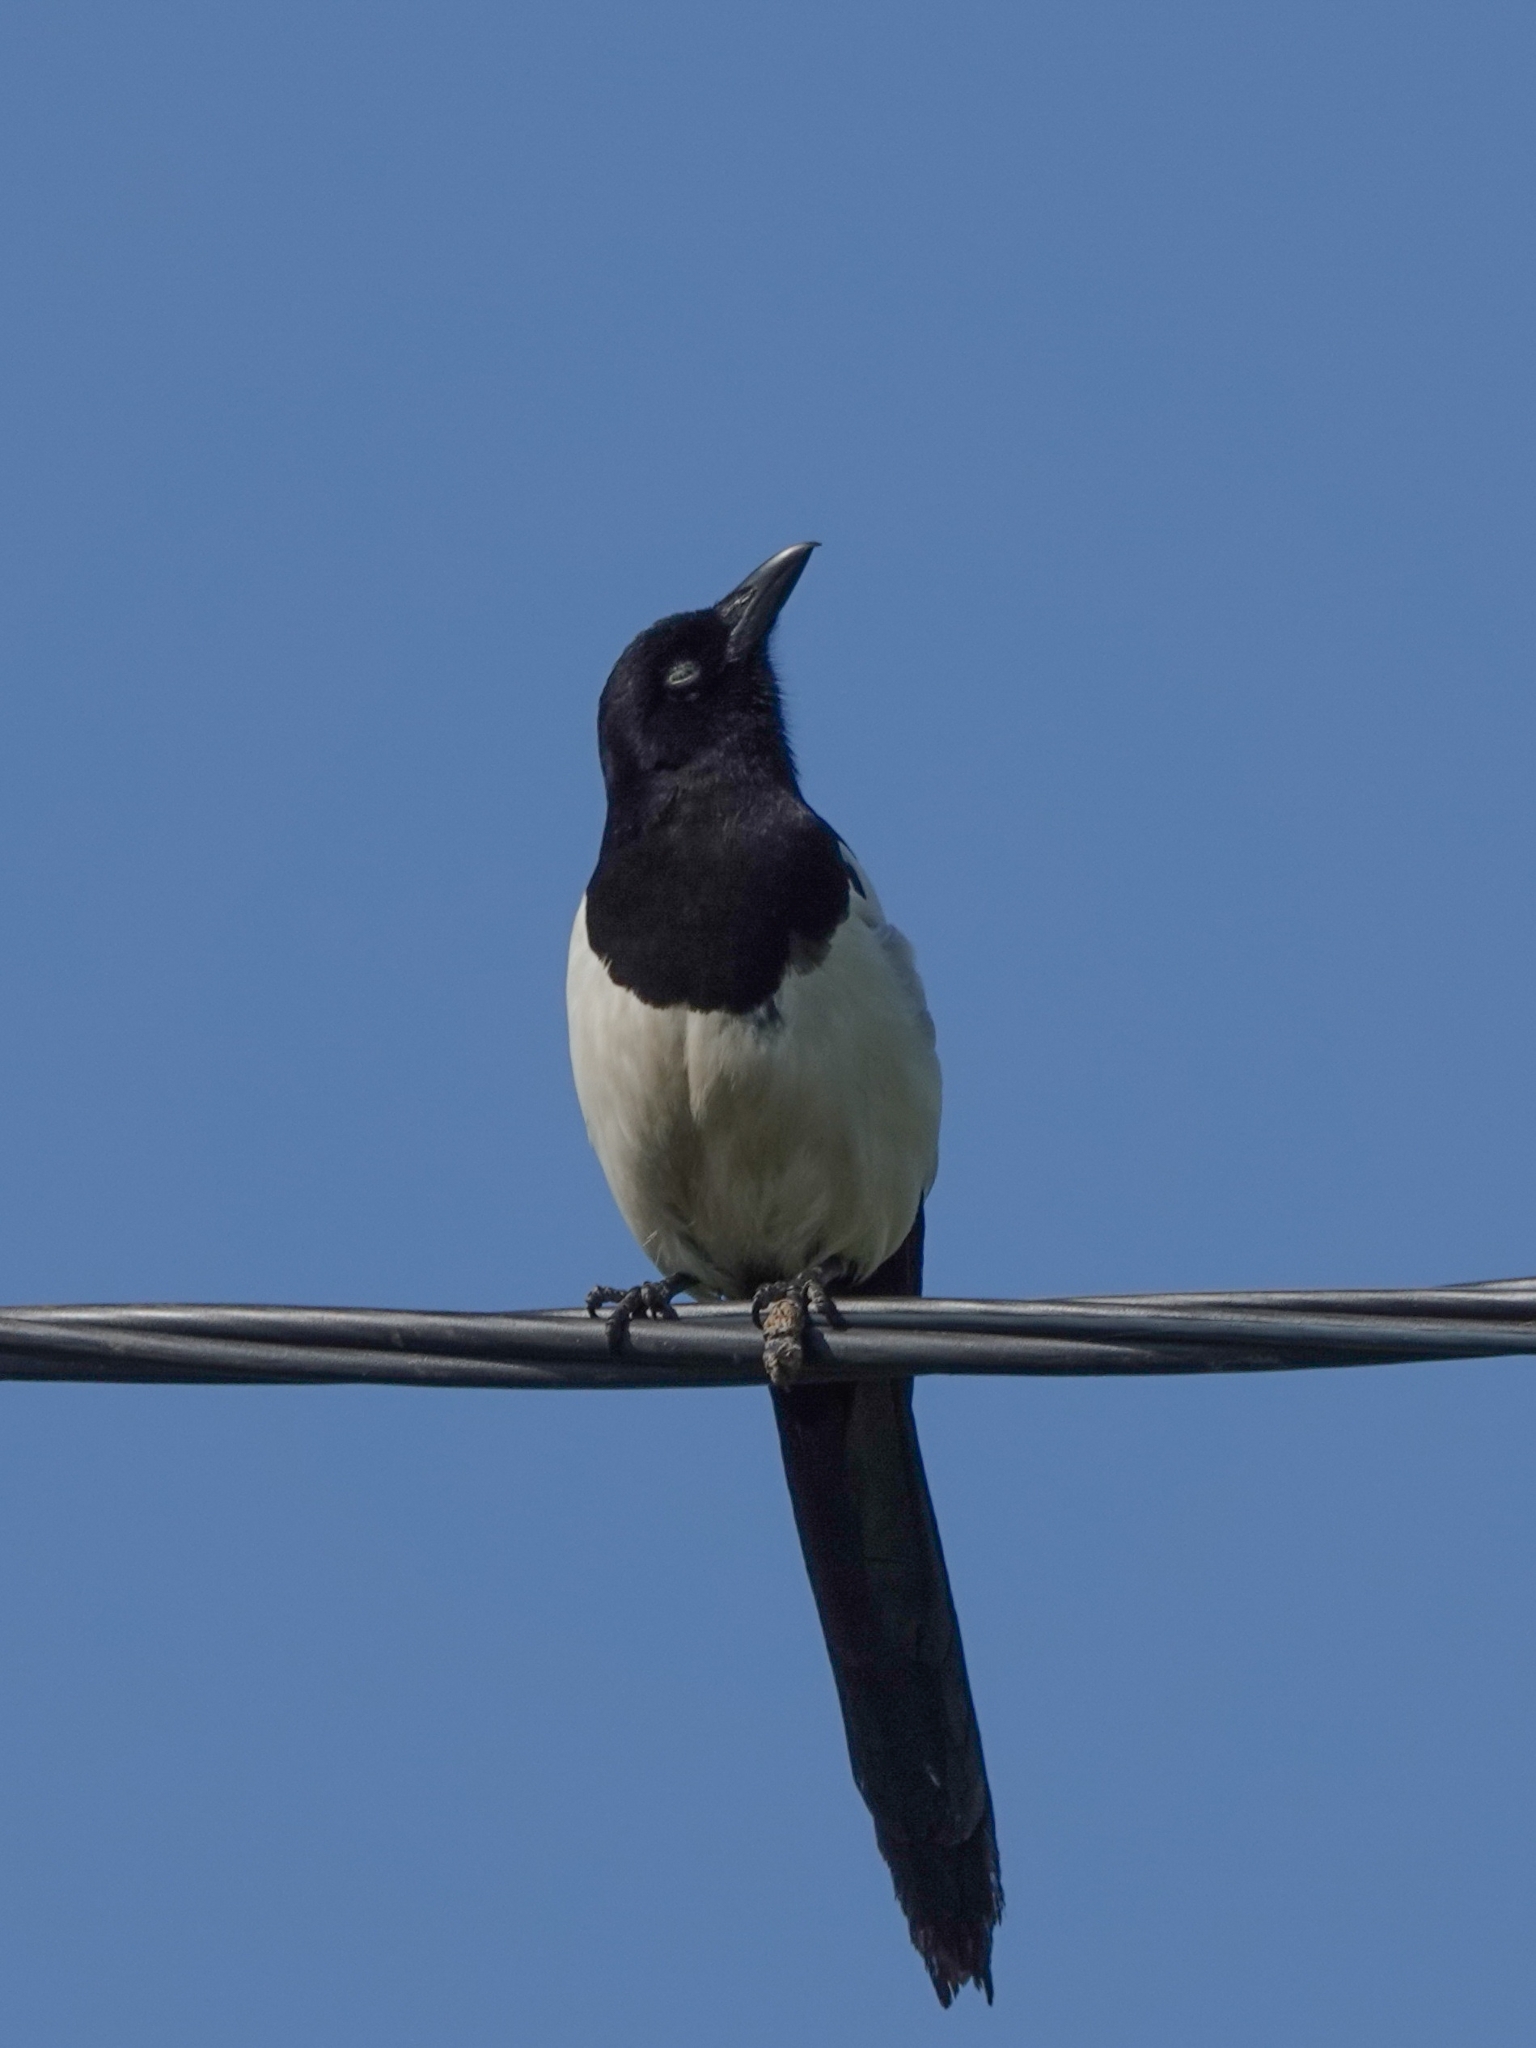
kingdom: Animalia
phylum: Chordata
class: Aves
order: Passeriformes
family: Corvidae
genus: Pica
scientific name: Pica pica
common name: Eurasian magpie
